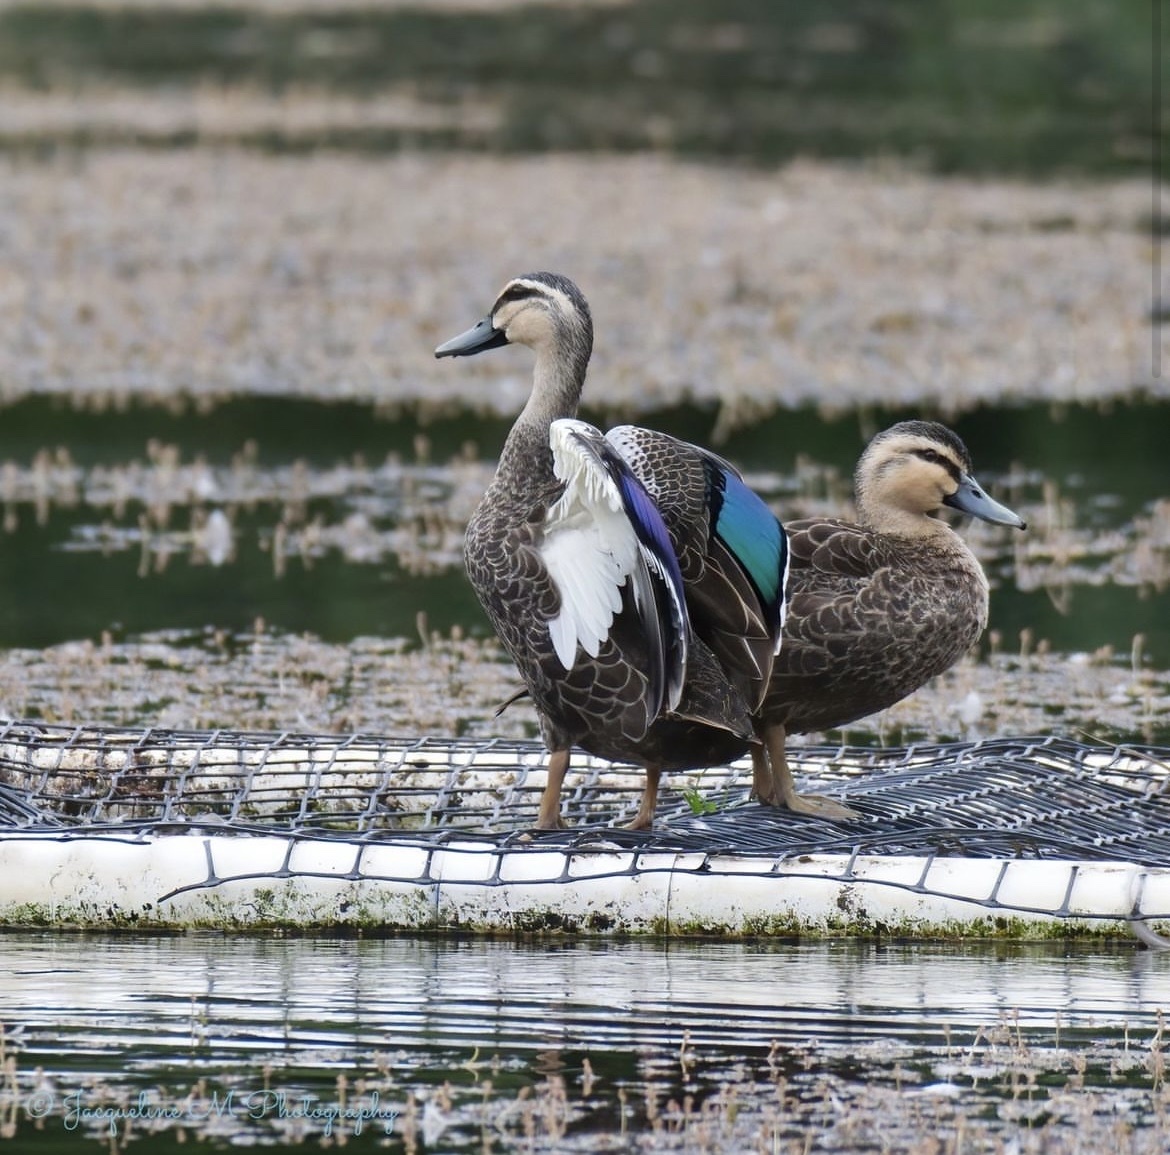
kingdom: Animalia
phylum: Chordata
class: Aves
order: Anseriformes
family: Anatidae
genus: Anas
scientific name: Anas
